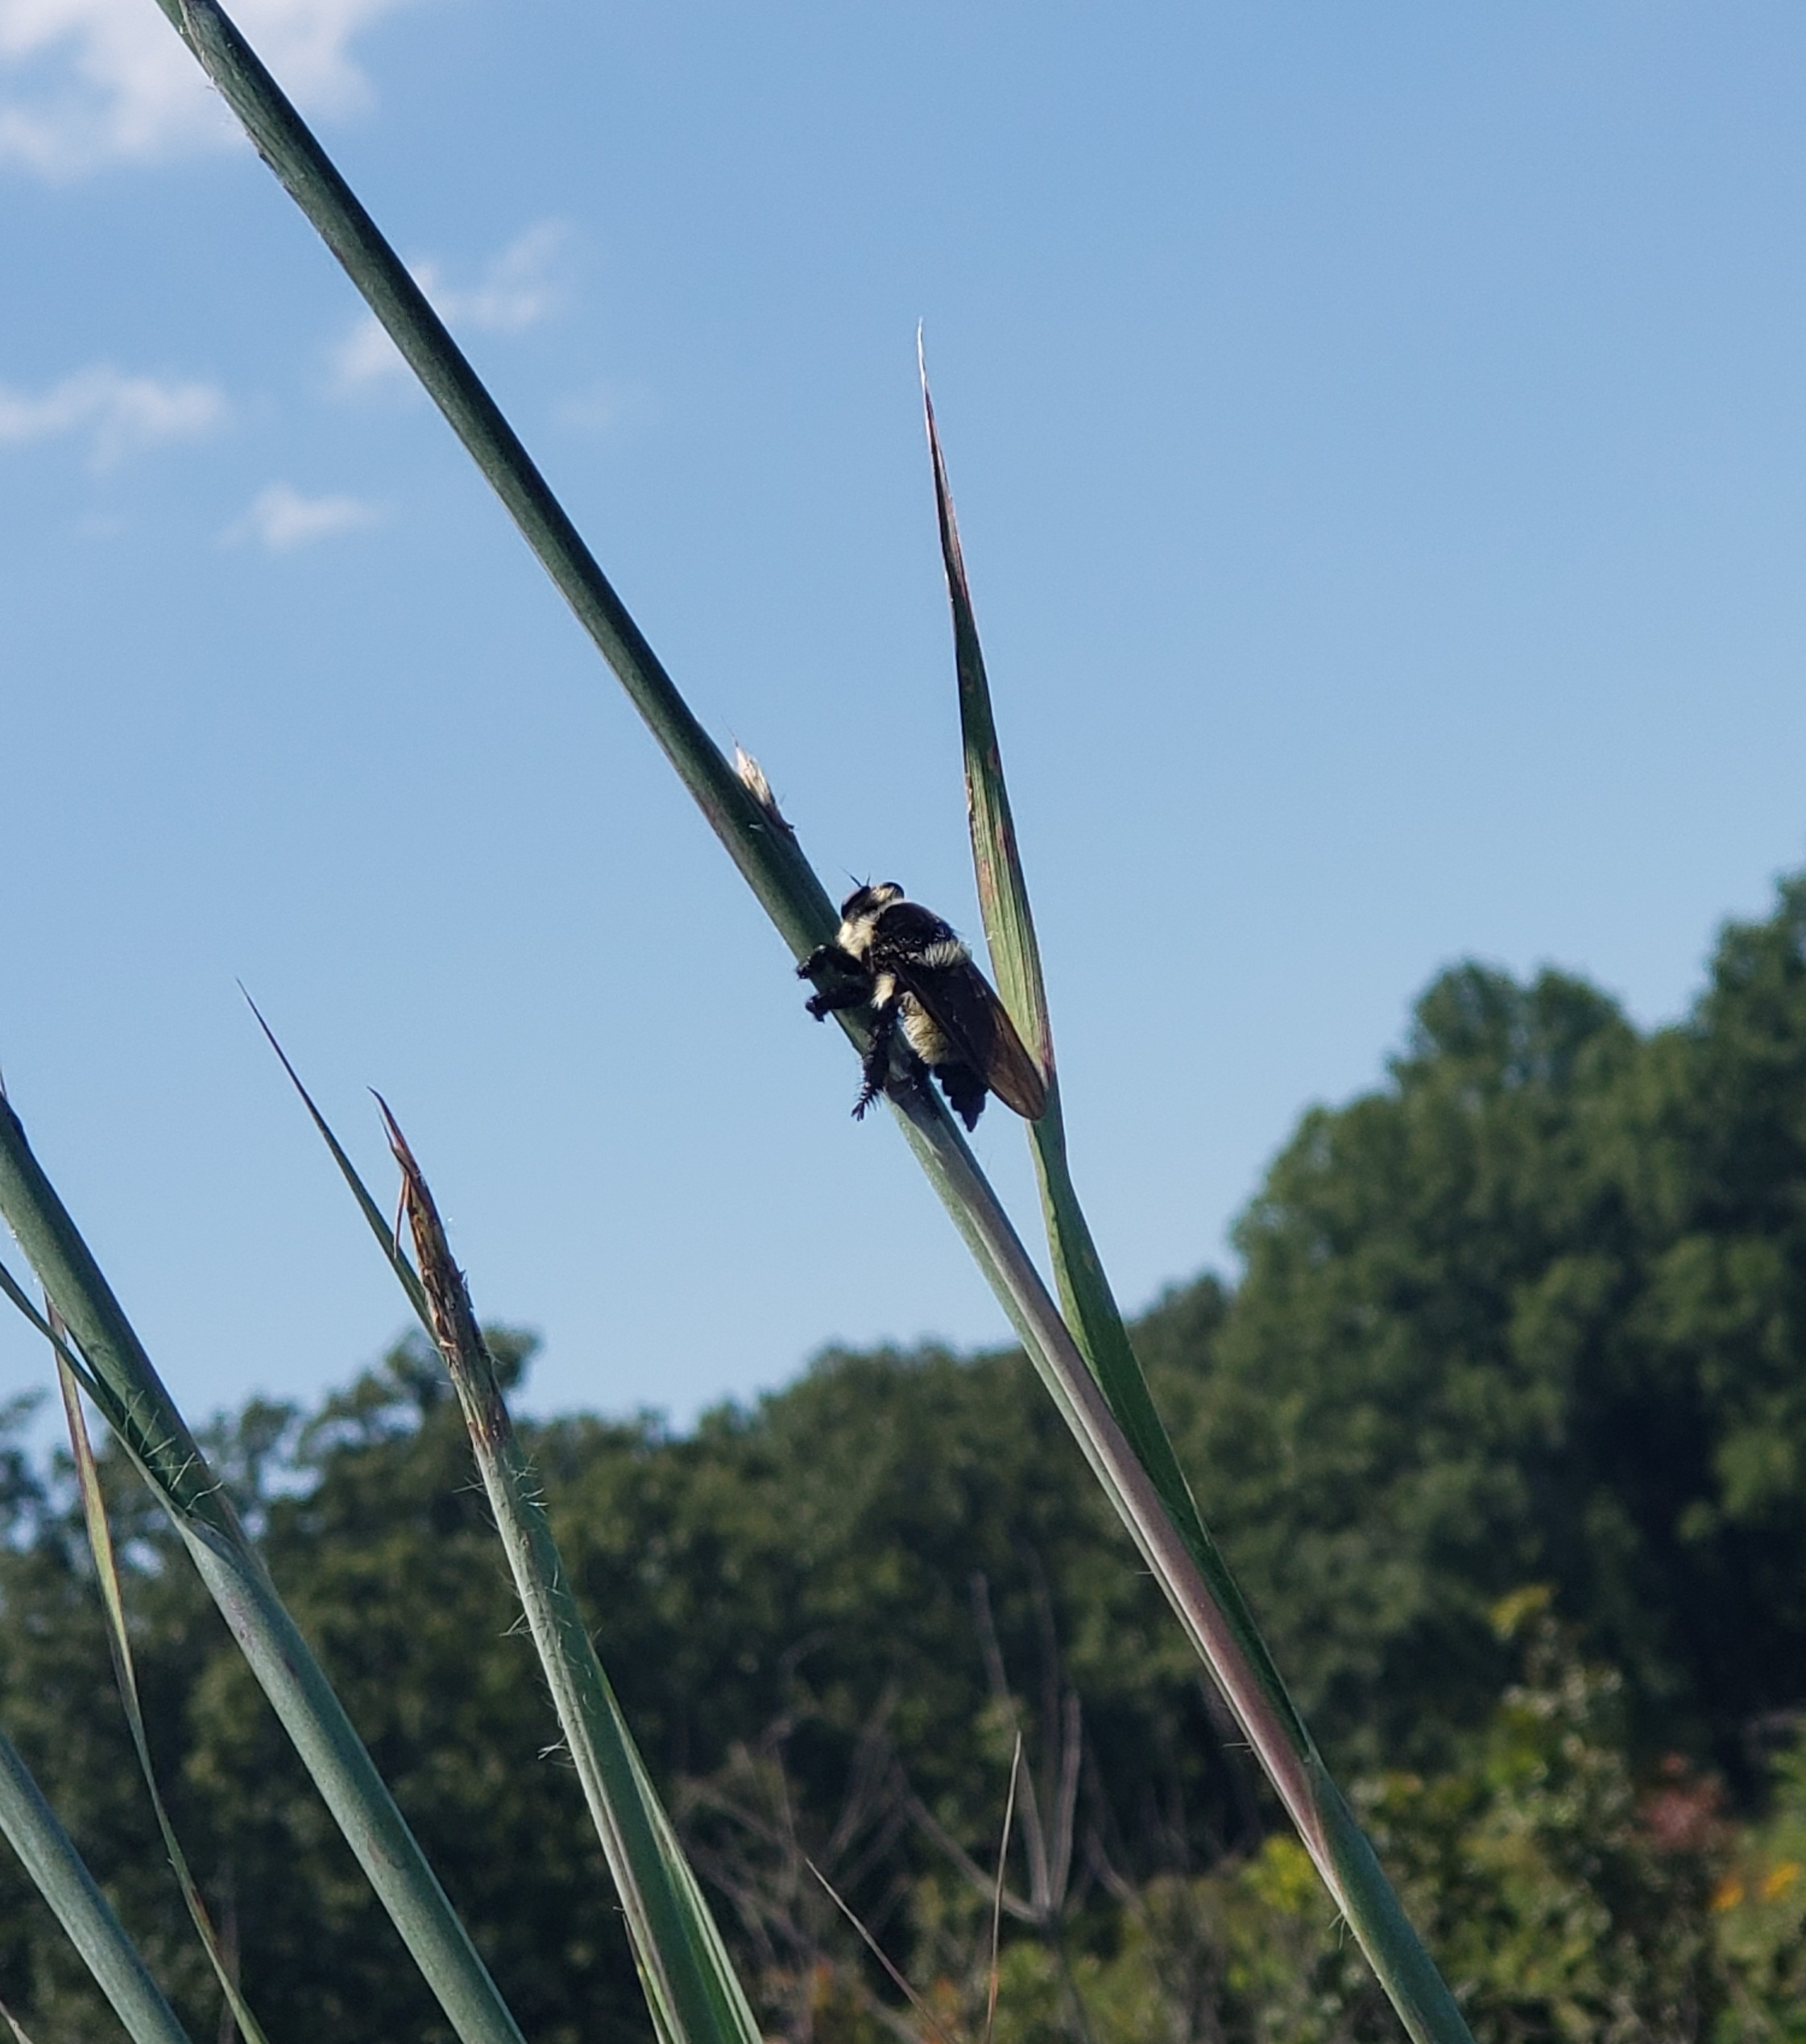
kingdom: Animalia
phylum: Arthropoda
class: Insecta
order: Diptera
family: Asilidae
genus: Mallophora
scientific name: Mallophora orcina
